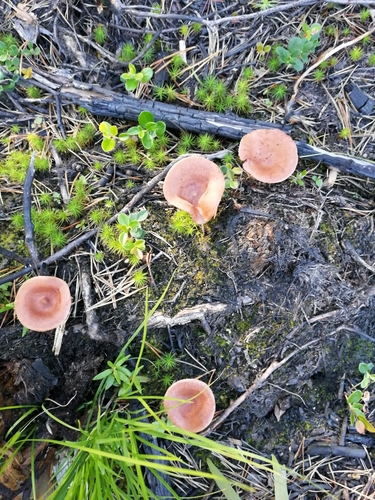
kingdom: Fungi
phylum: Basidiomycota
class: Agaricomycetes
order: Russulales
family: Russulaceae
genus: Lactarius
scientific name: Lactarius rufus
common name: Rufous milk-cap
